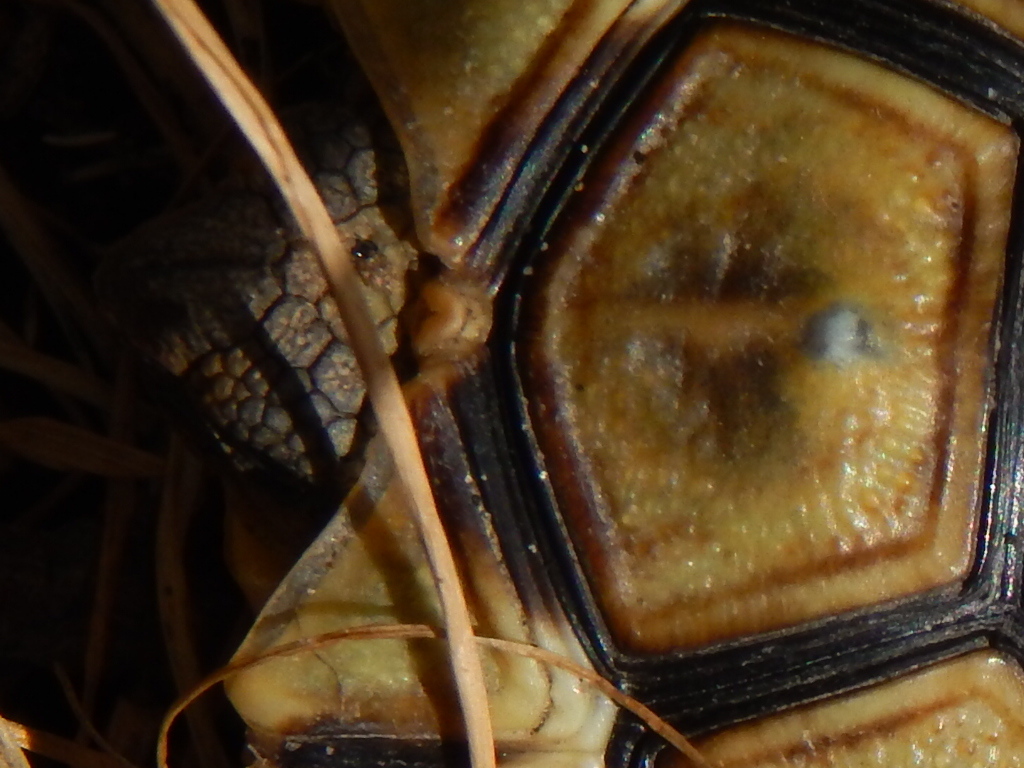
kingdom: Animalia
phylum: Chordata
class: Testudines
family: Testudinidae
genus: Chersina
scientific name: Chersina angulata
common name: South african bowsprit tortoise
